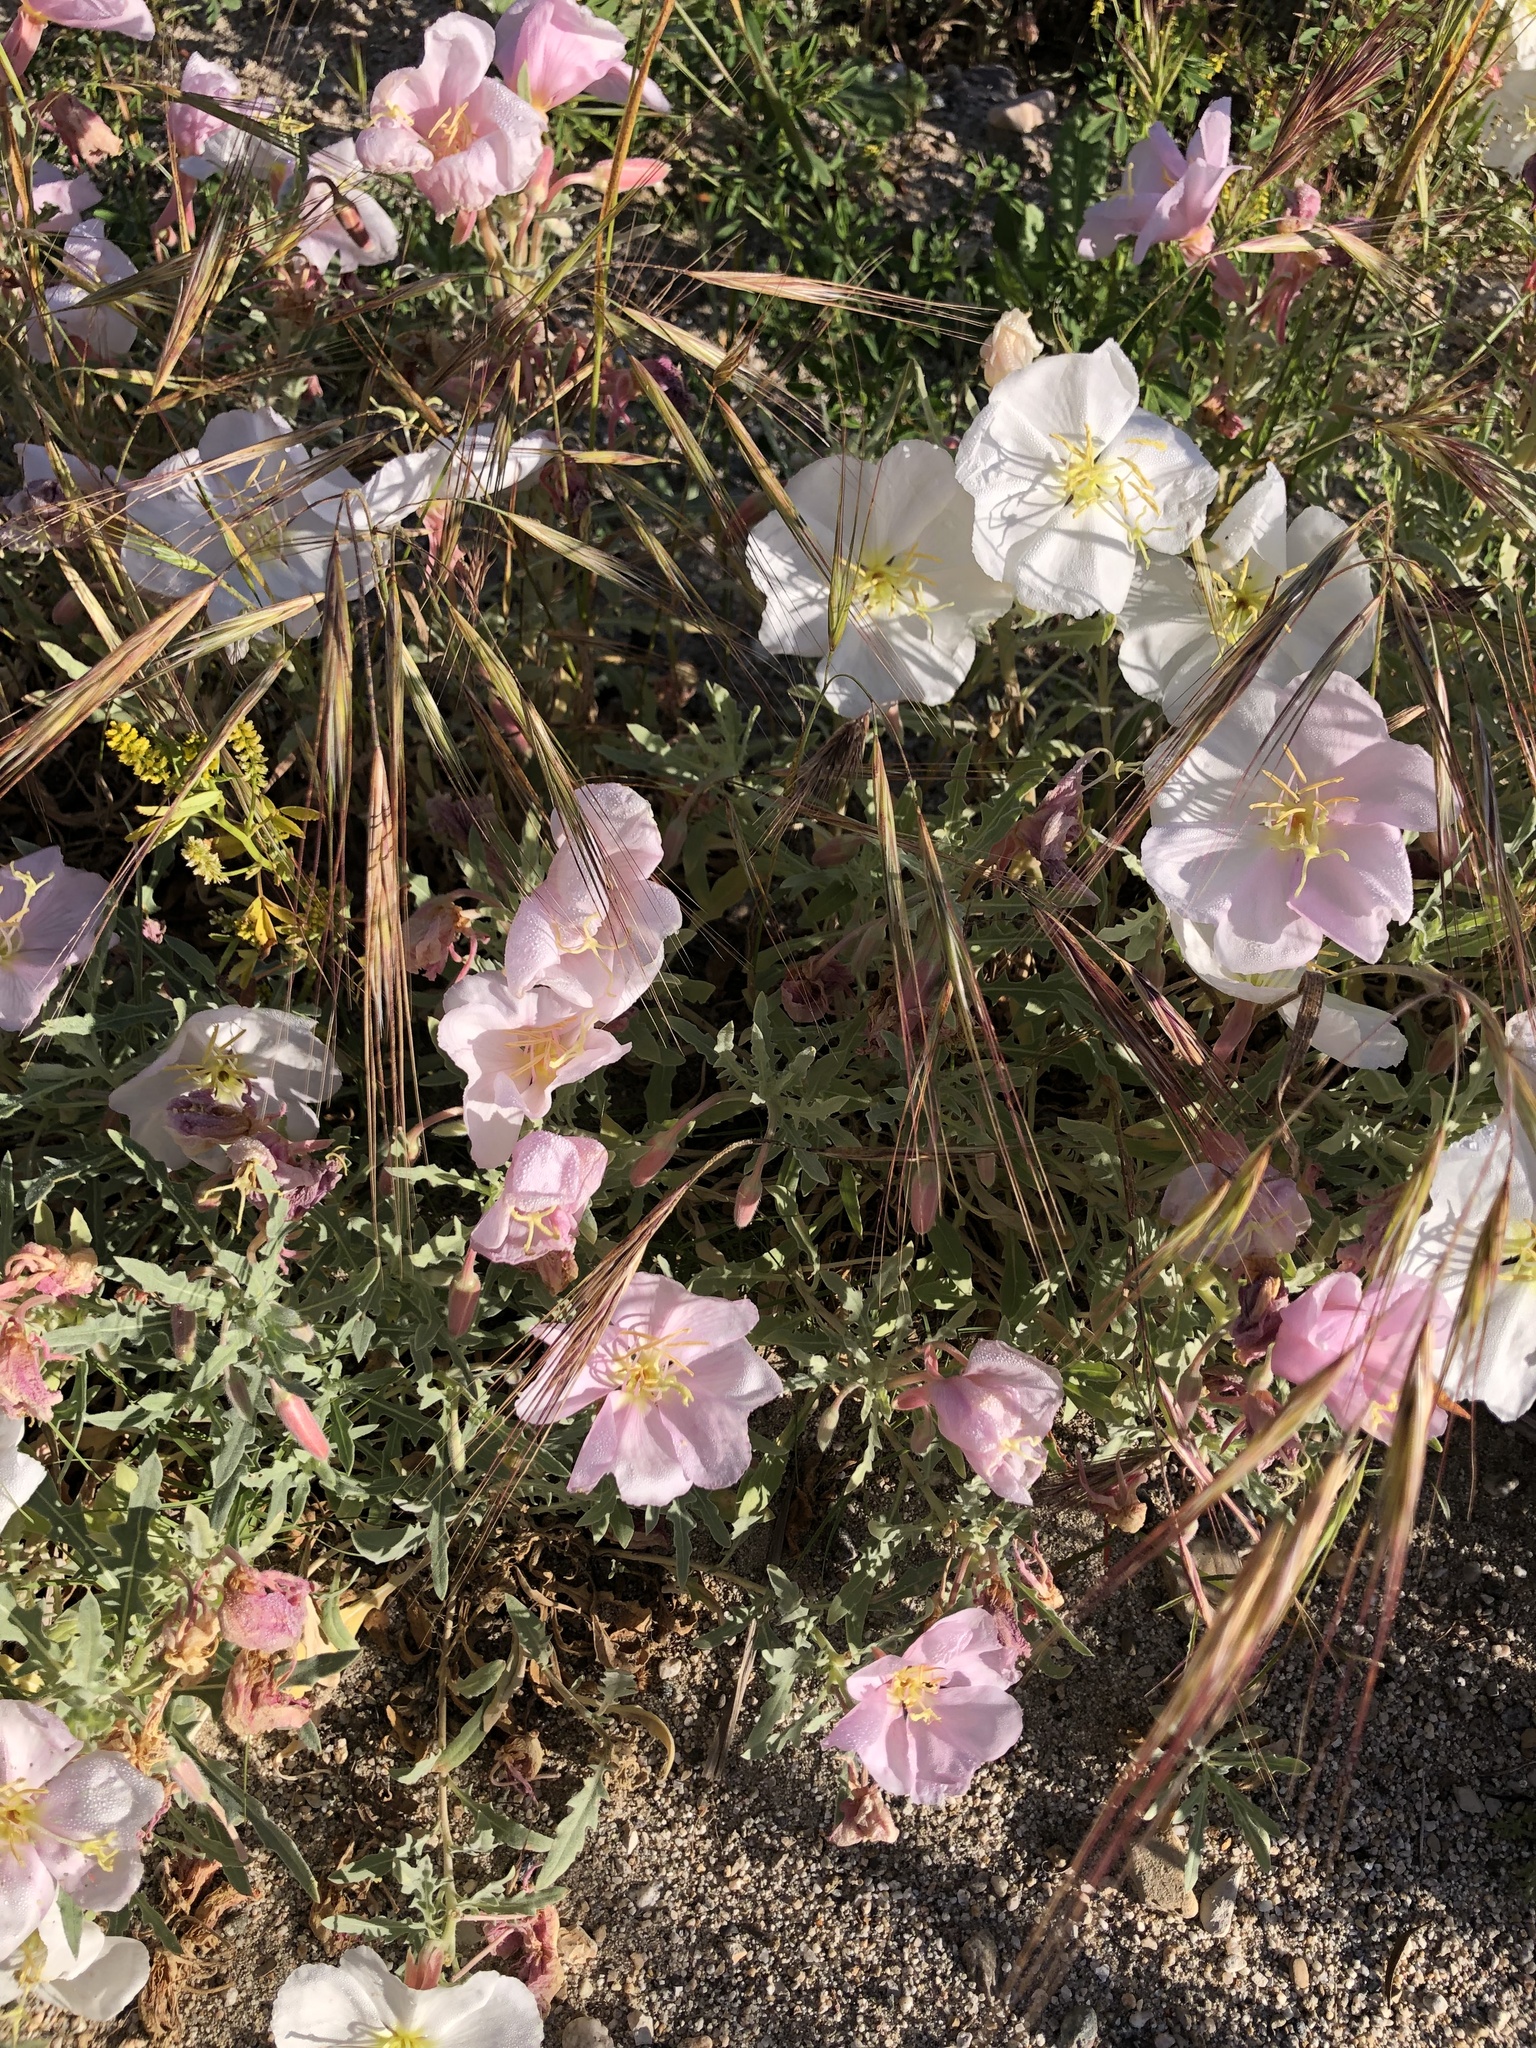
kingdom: Plantae
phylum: Tracheophyta
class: Magnoliopsida
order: Myrtales
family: Onagraceae
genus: Oenothera
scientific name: Oenothera californica
